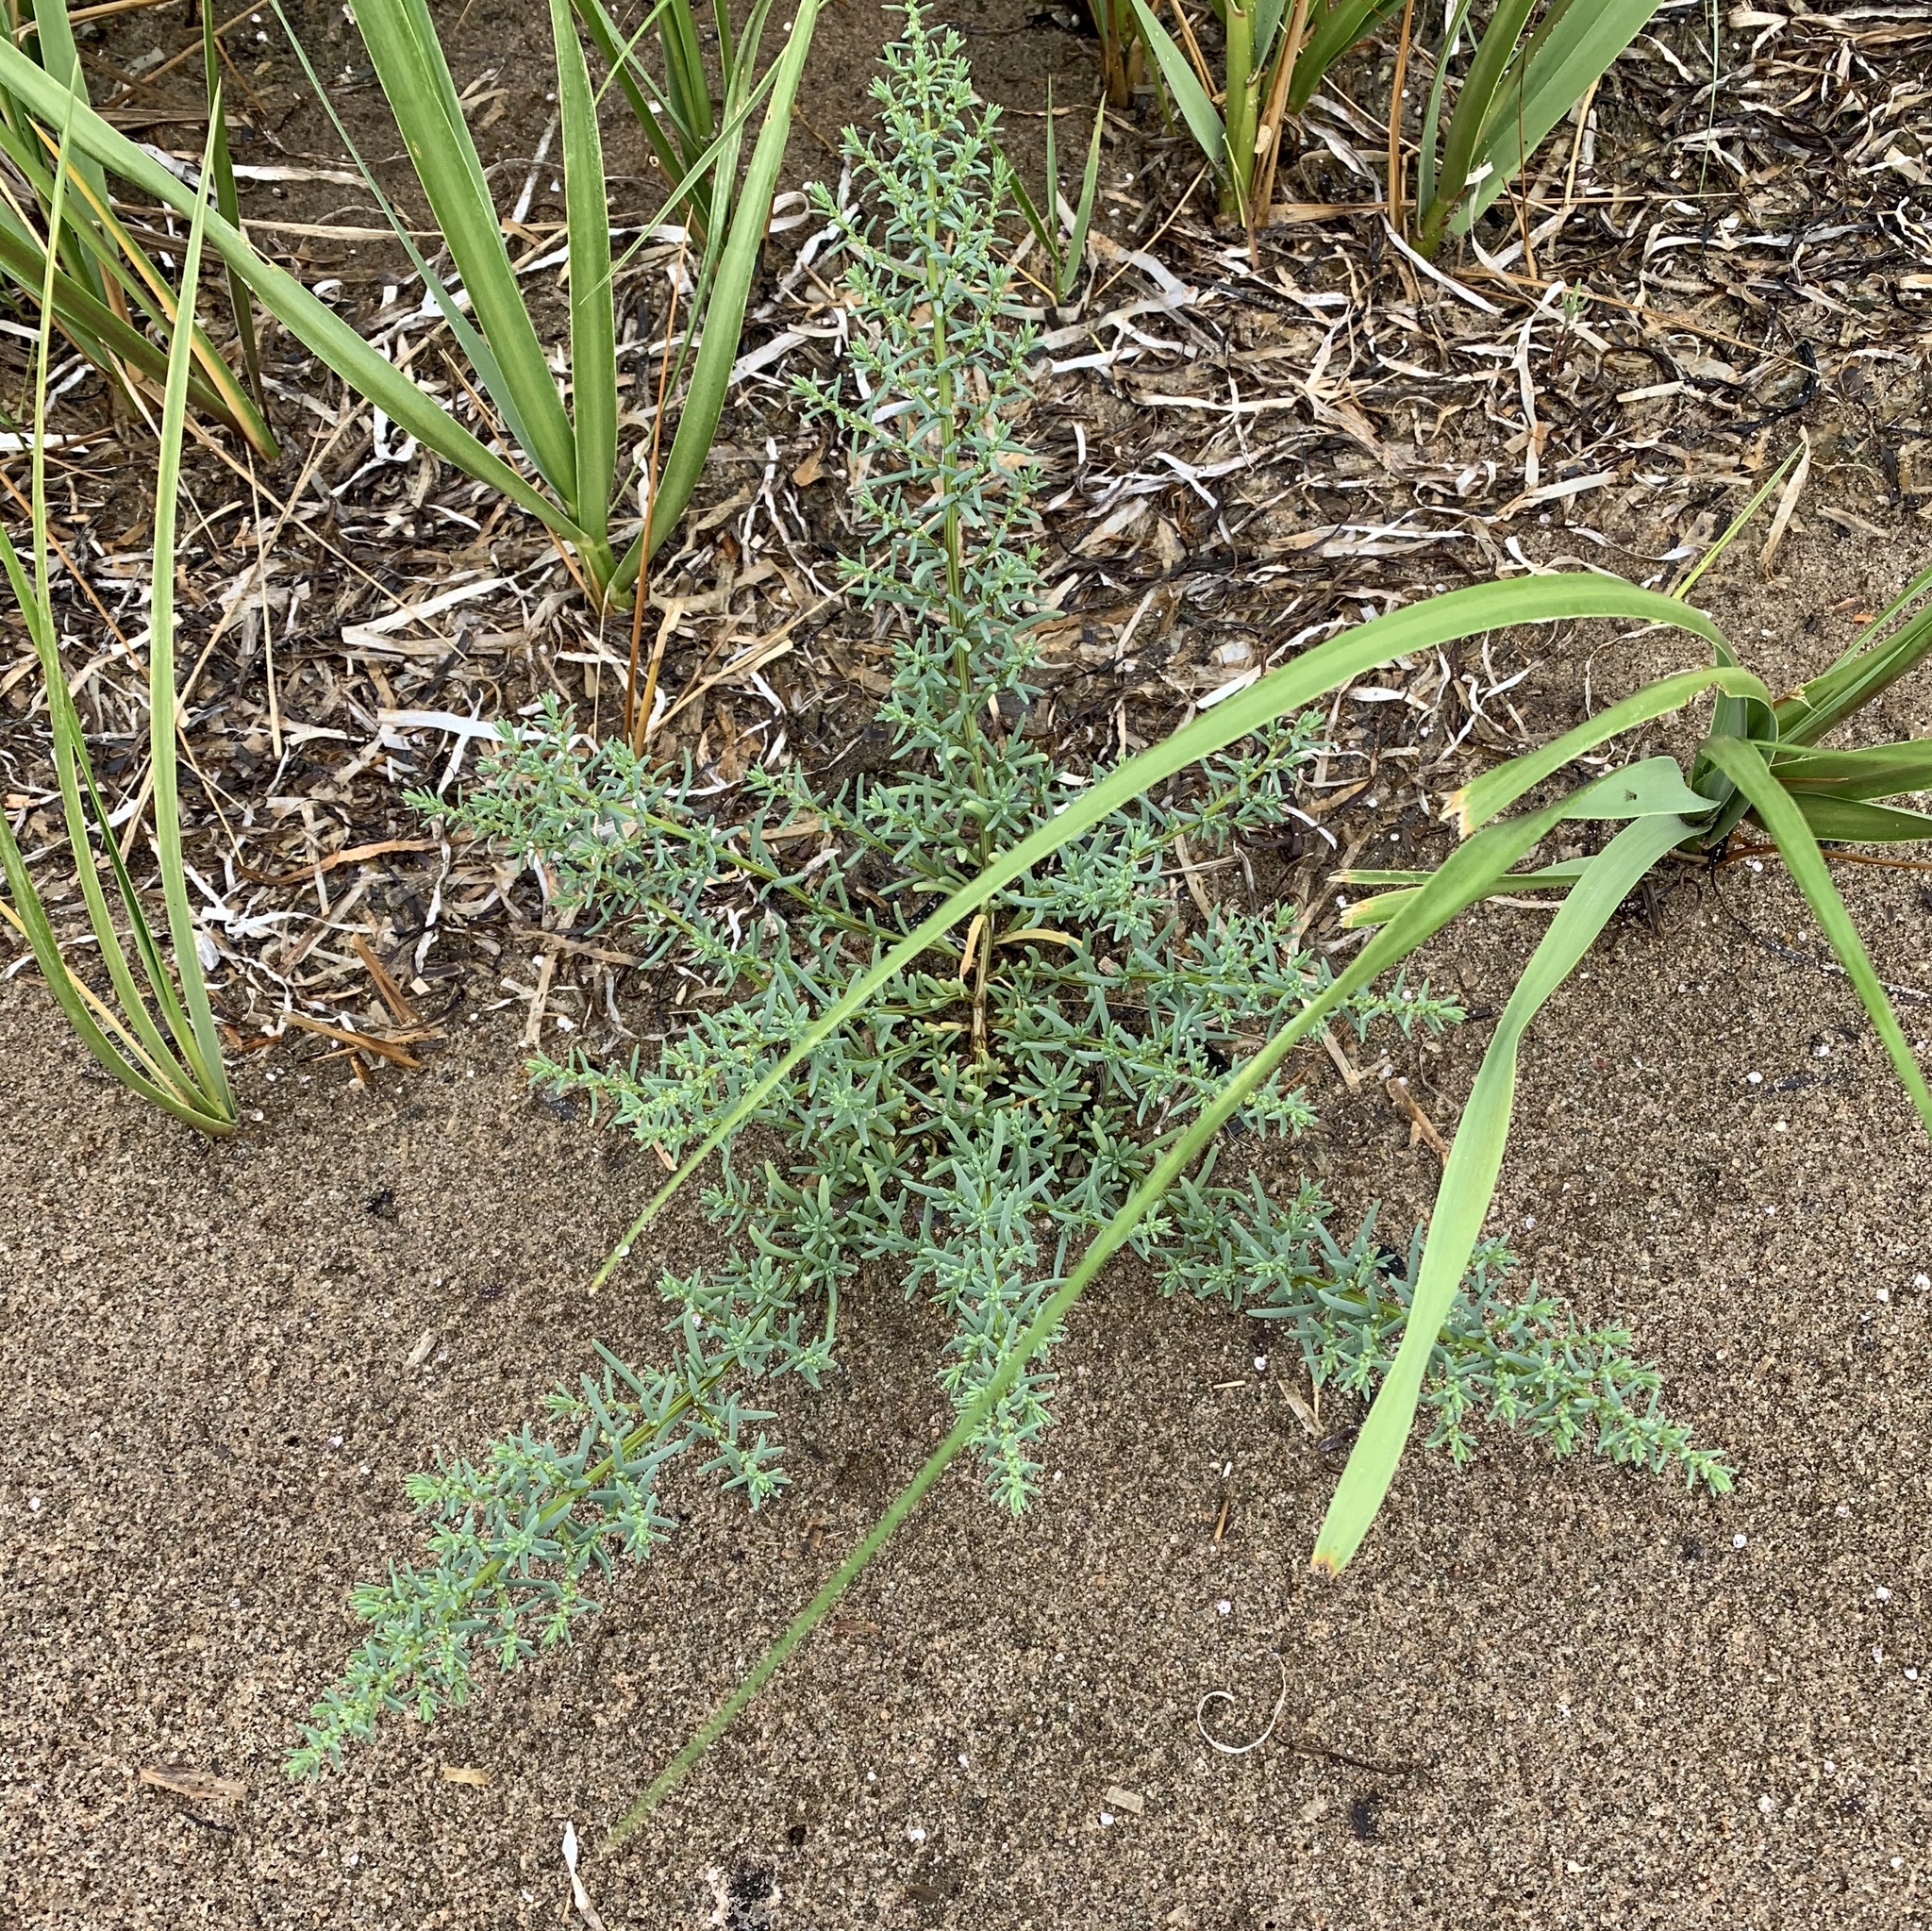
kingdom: Plantae
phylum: Tracheophyta
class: Magnoliopsida
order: Caryophyllales
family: Amaranthaceae
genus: Salsola
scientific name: Salsola kali
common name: Saltwort
